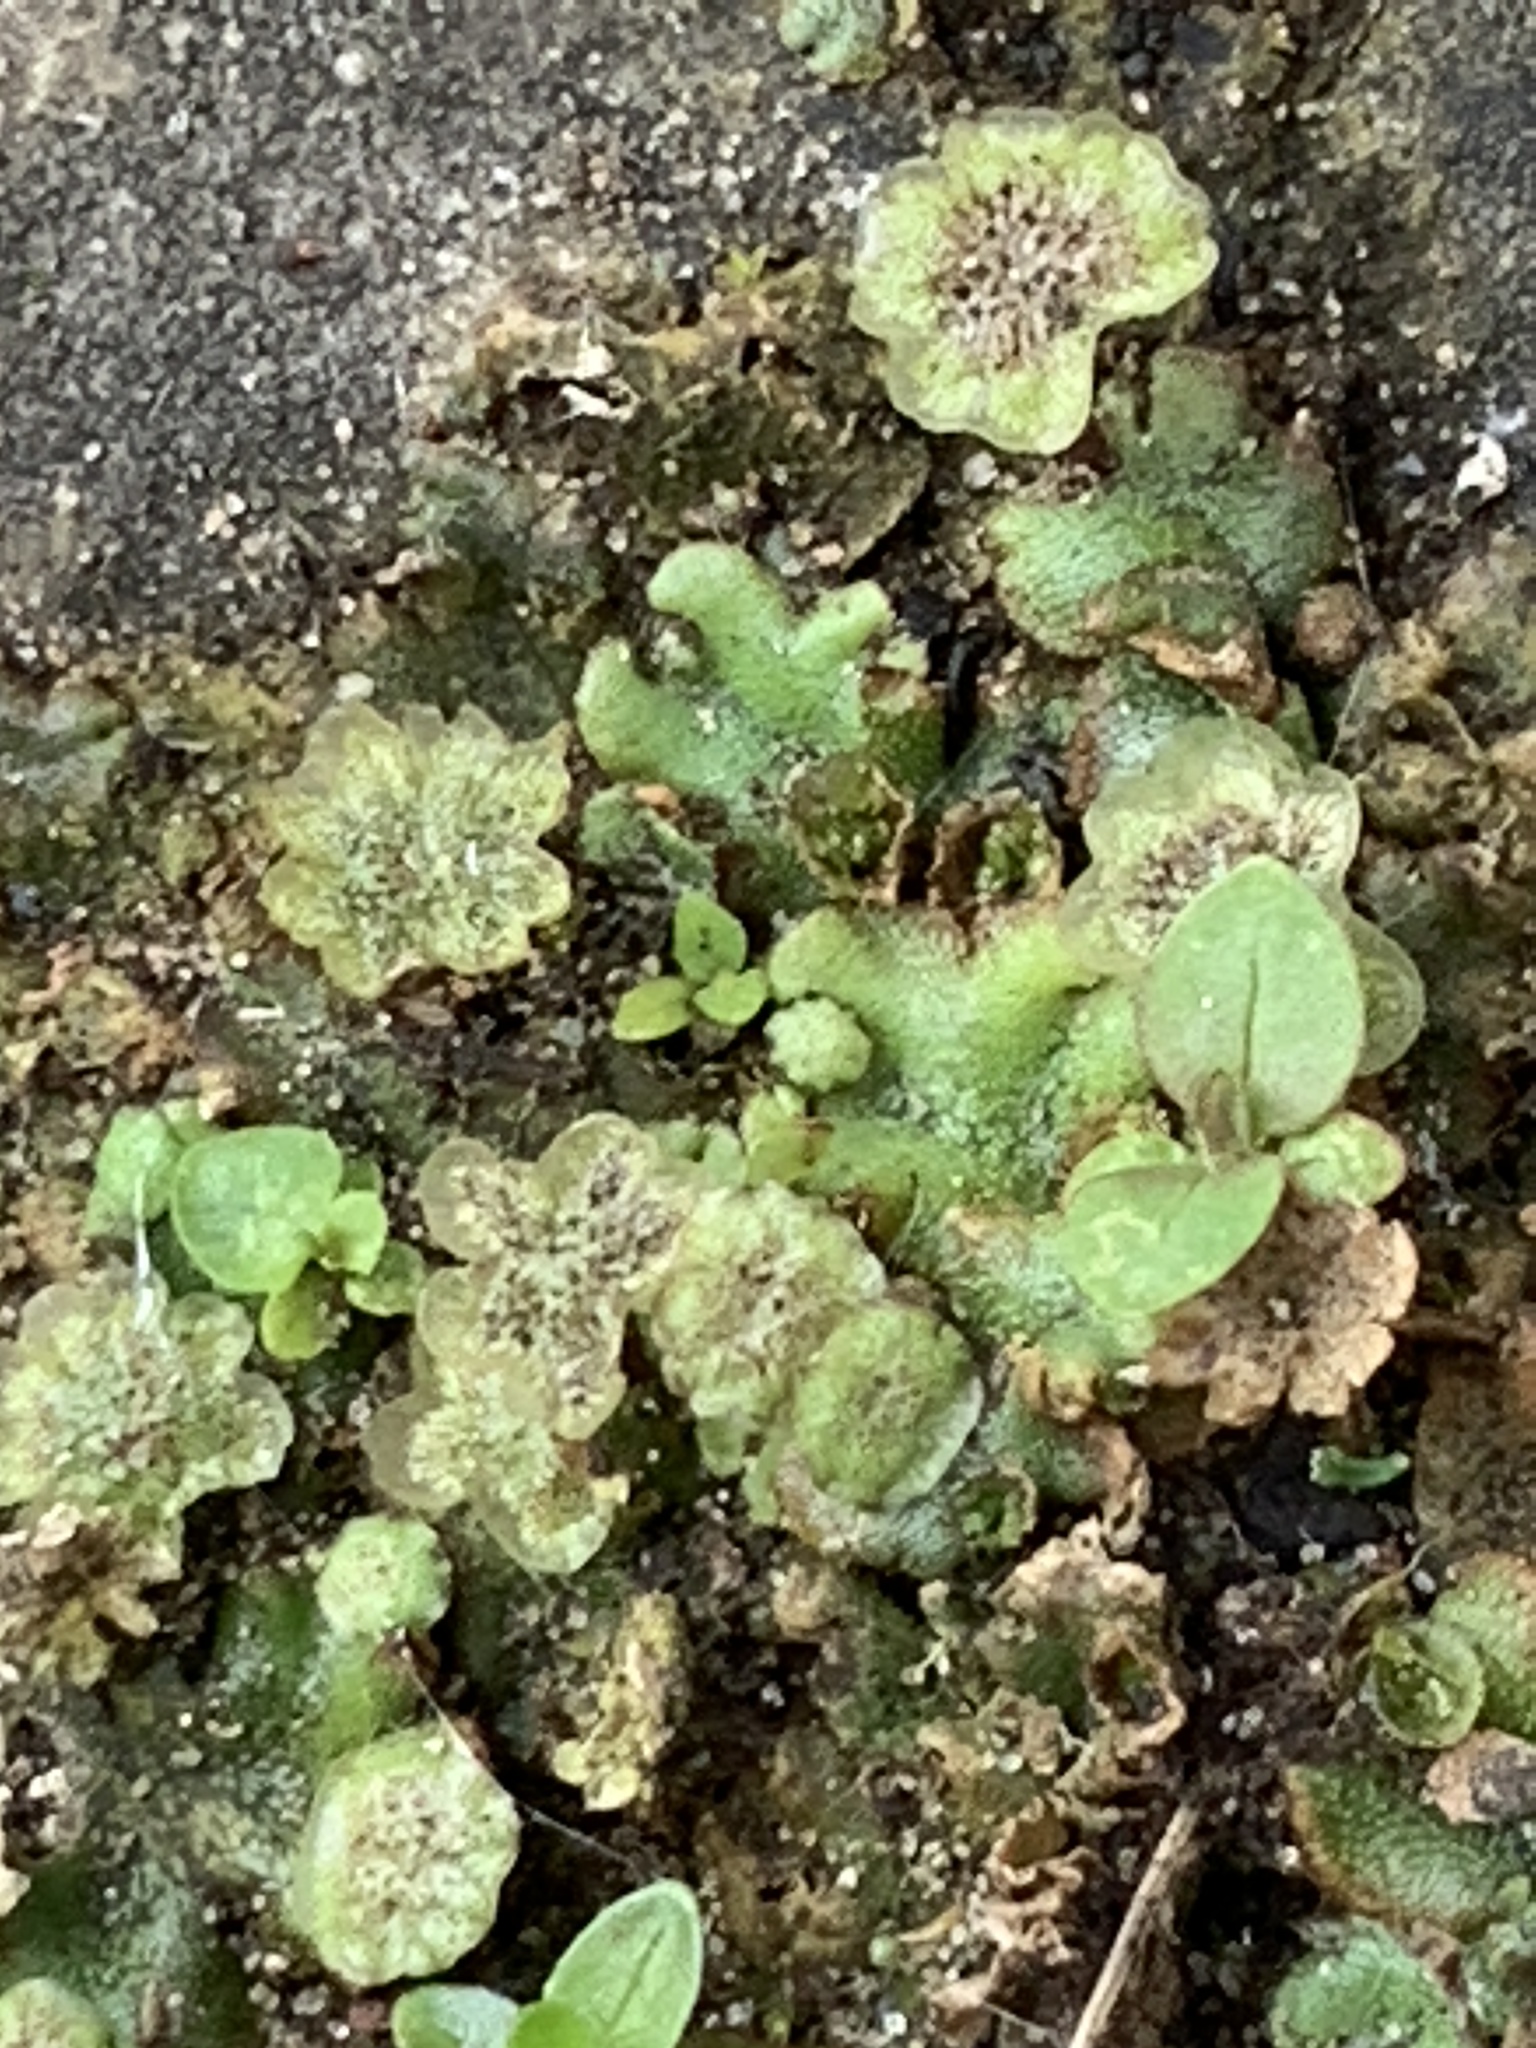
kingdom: Plantae
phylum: Marchantiophyta
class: Marchantiopsida
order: Marchantiales
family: Marchantiaceae
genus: Marchantia
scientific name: Marchantia polymorpha
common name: Common liverwort
